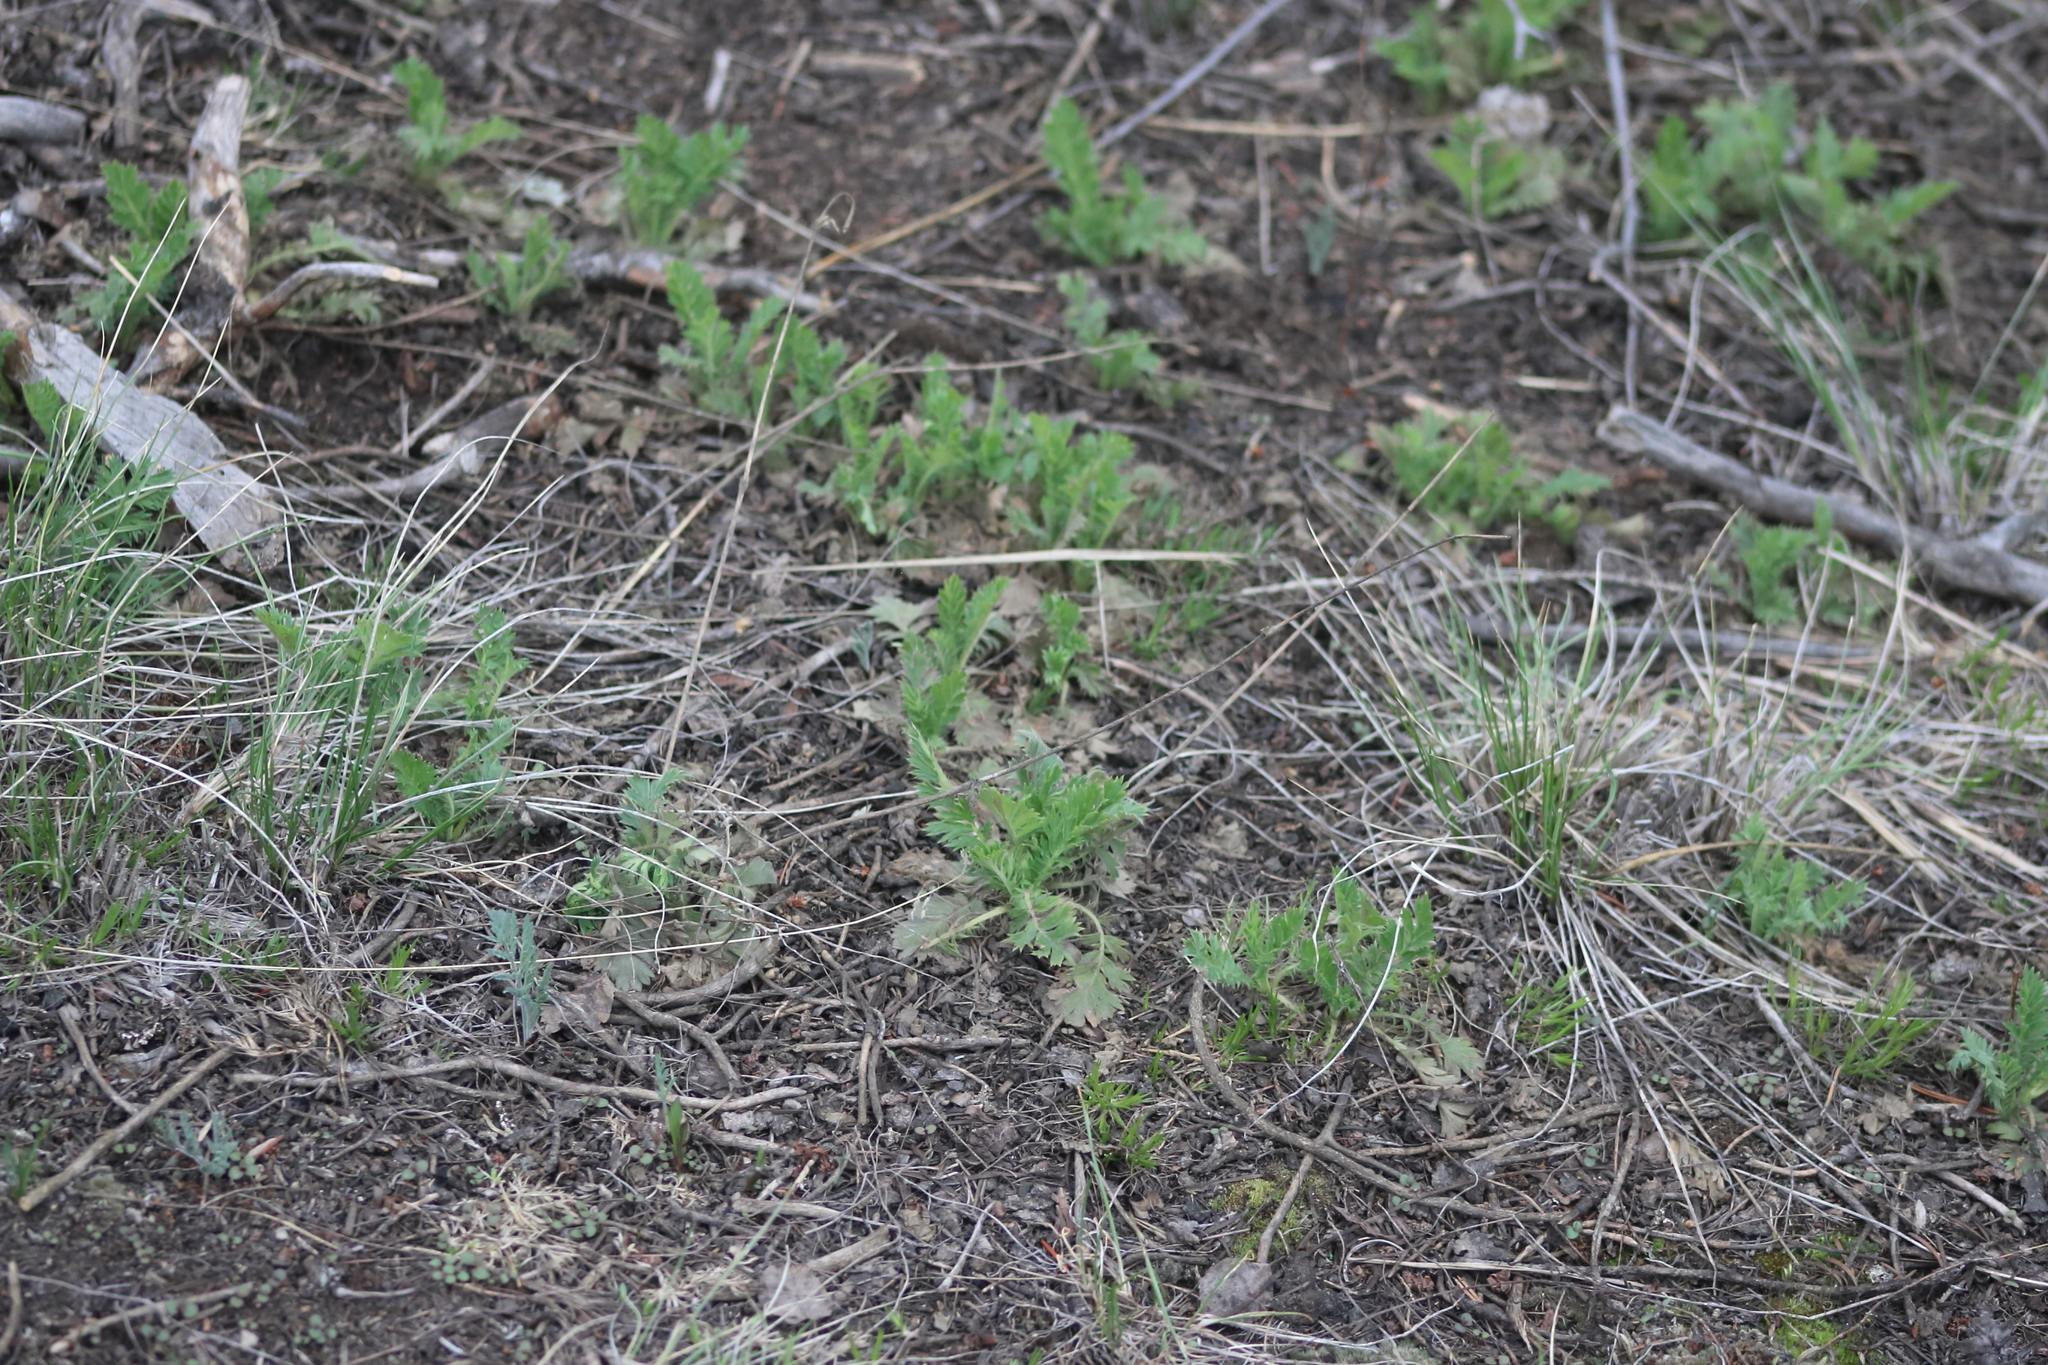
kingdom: Plantae
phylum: Tracheophyta
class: Magnoliopsida
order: Rosales
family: Rosaceae
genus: Geum
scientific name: Geum triflorum
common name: Old man's whiskers
